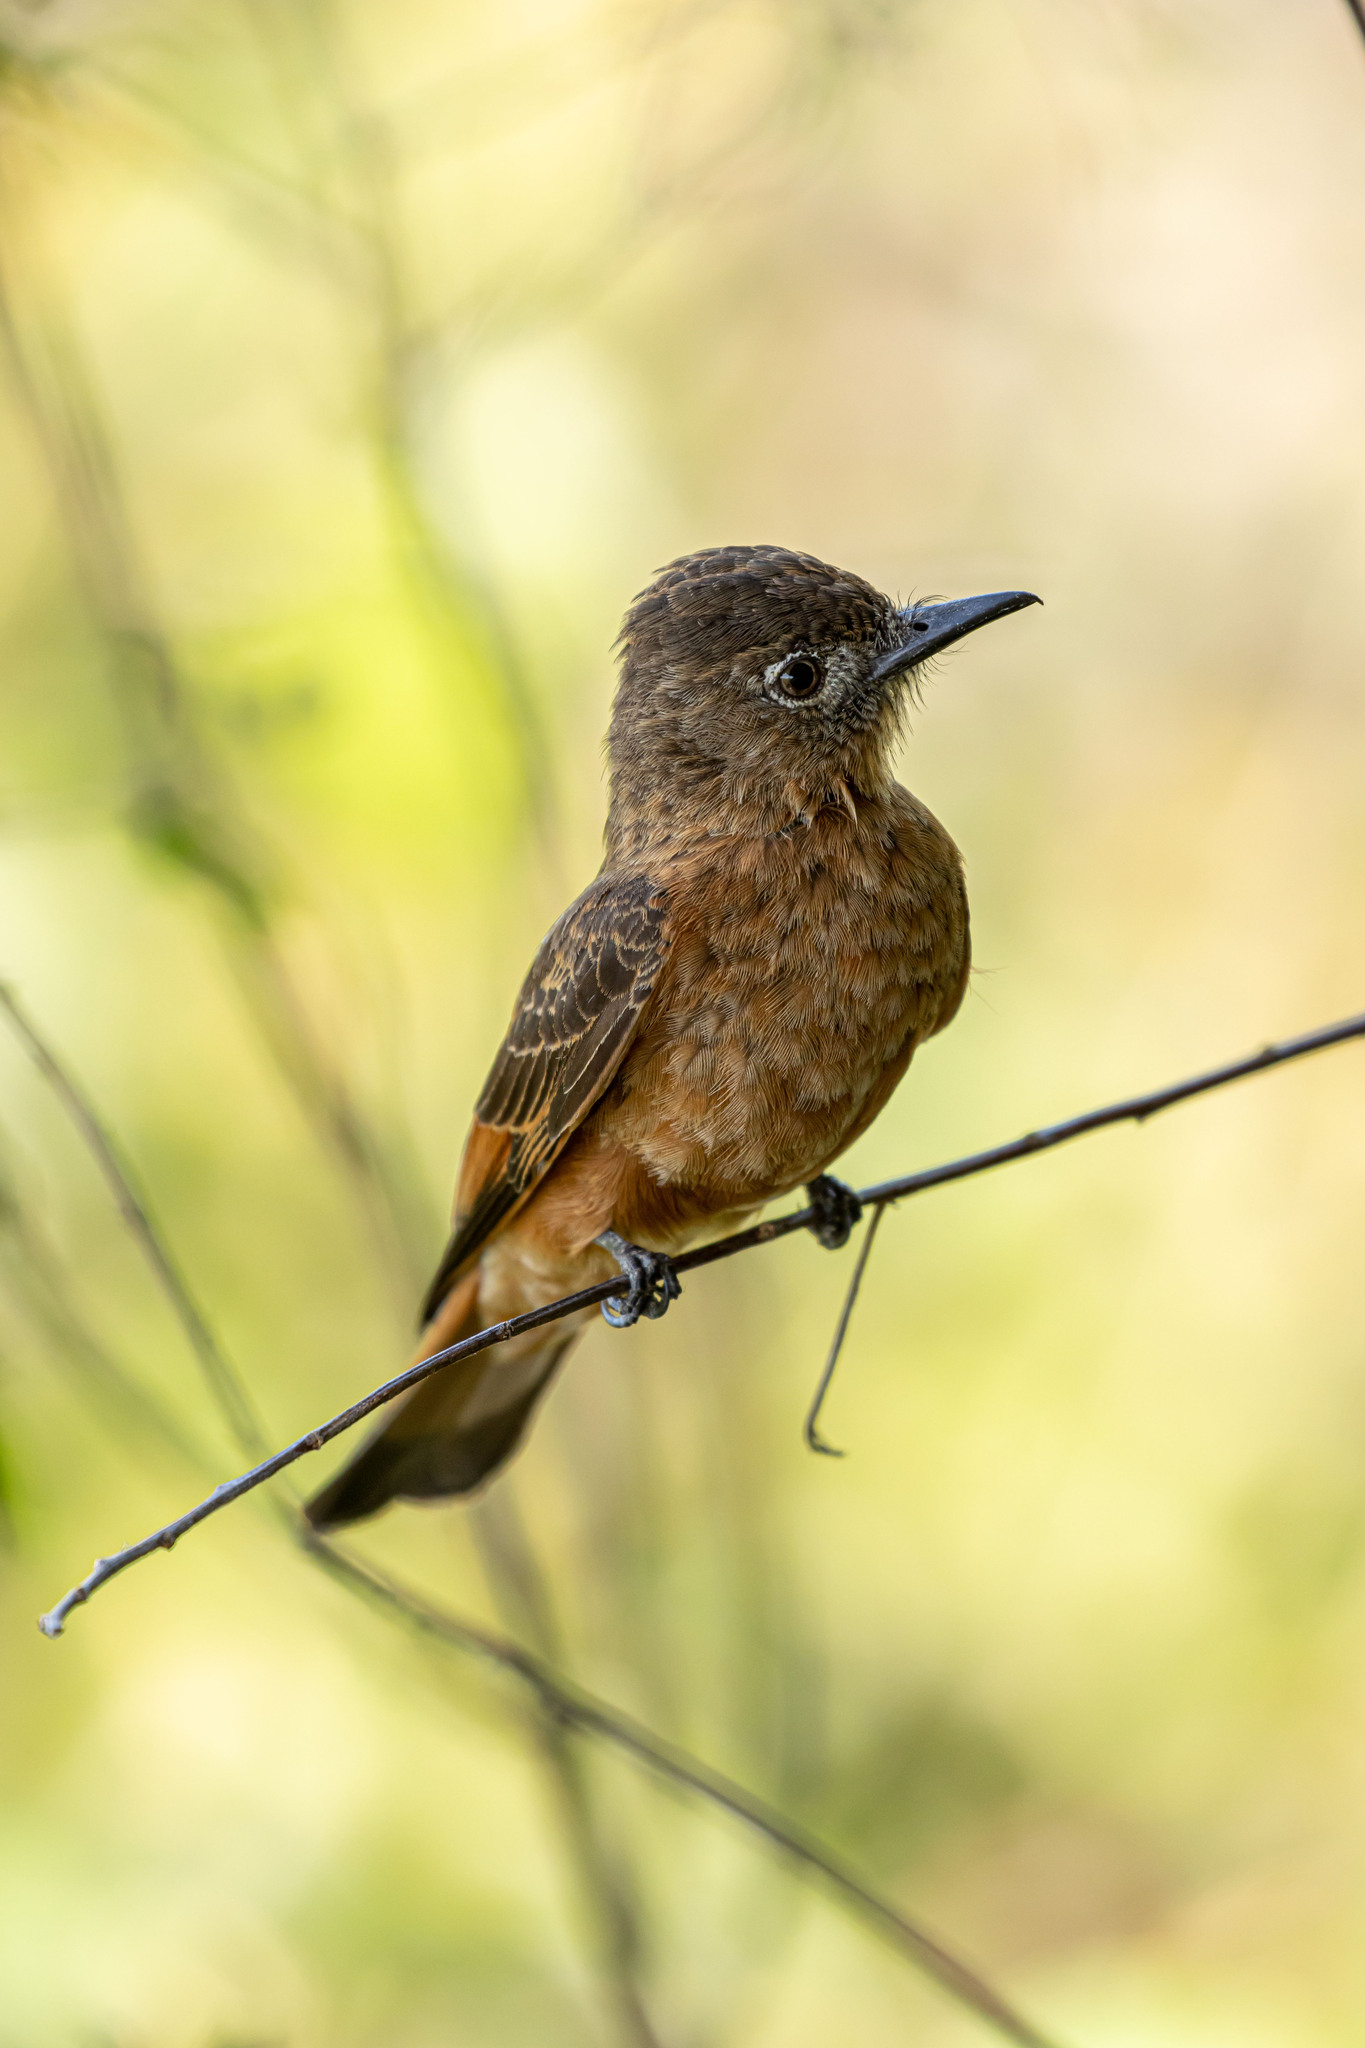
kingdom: Animalia
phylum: Chordata
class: Aves
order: Passeriformes
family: Tyrannidae
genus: Hirundinea
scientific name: Hirundinea ferruginea
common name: Cliff flycatcher
